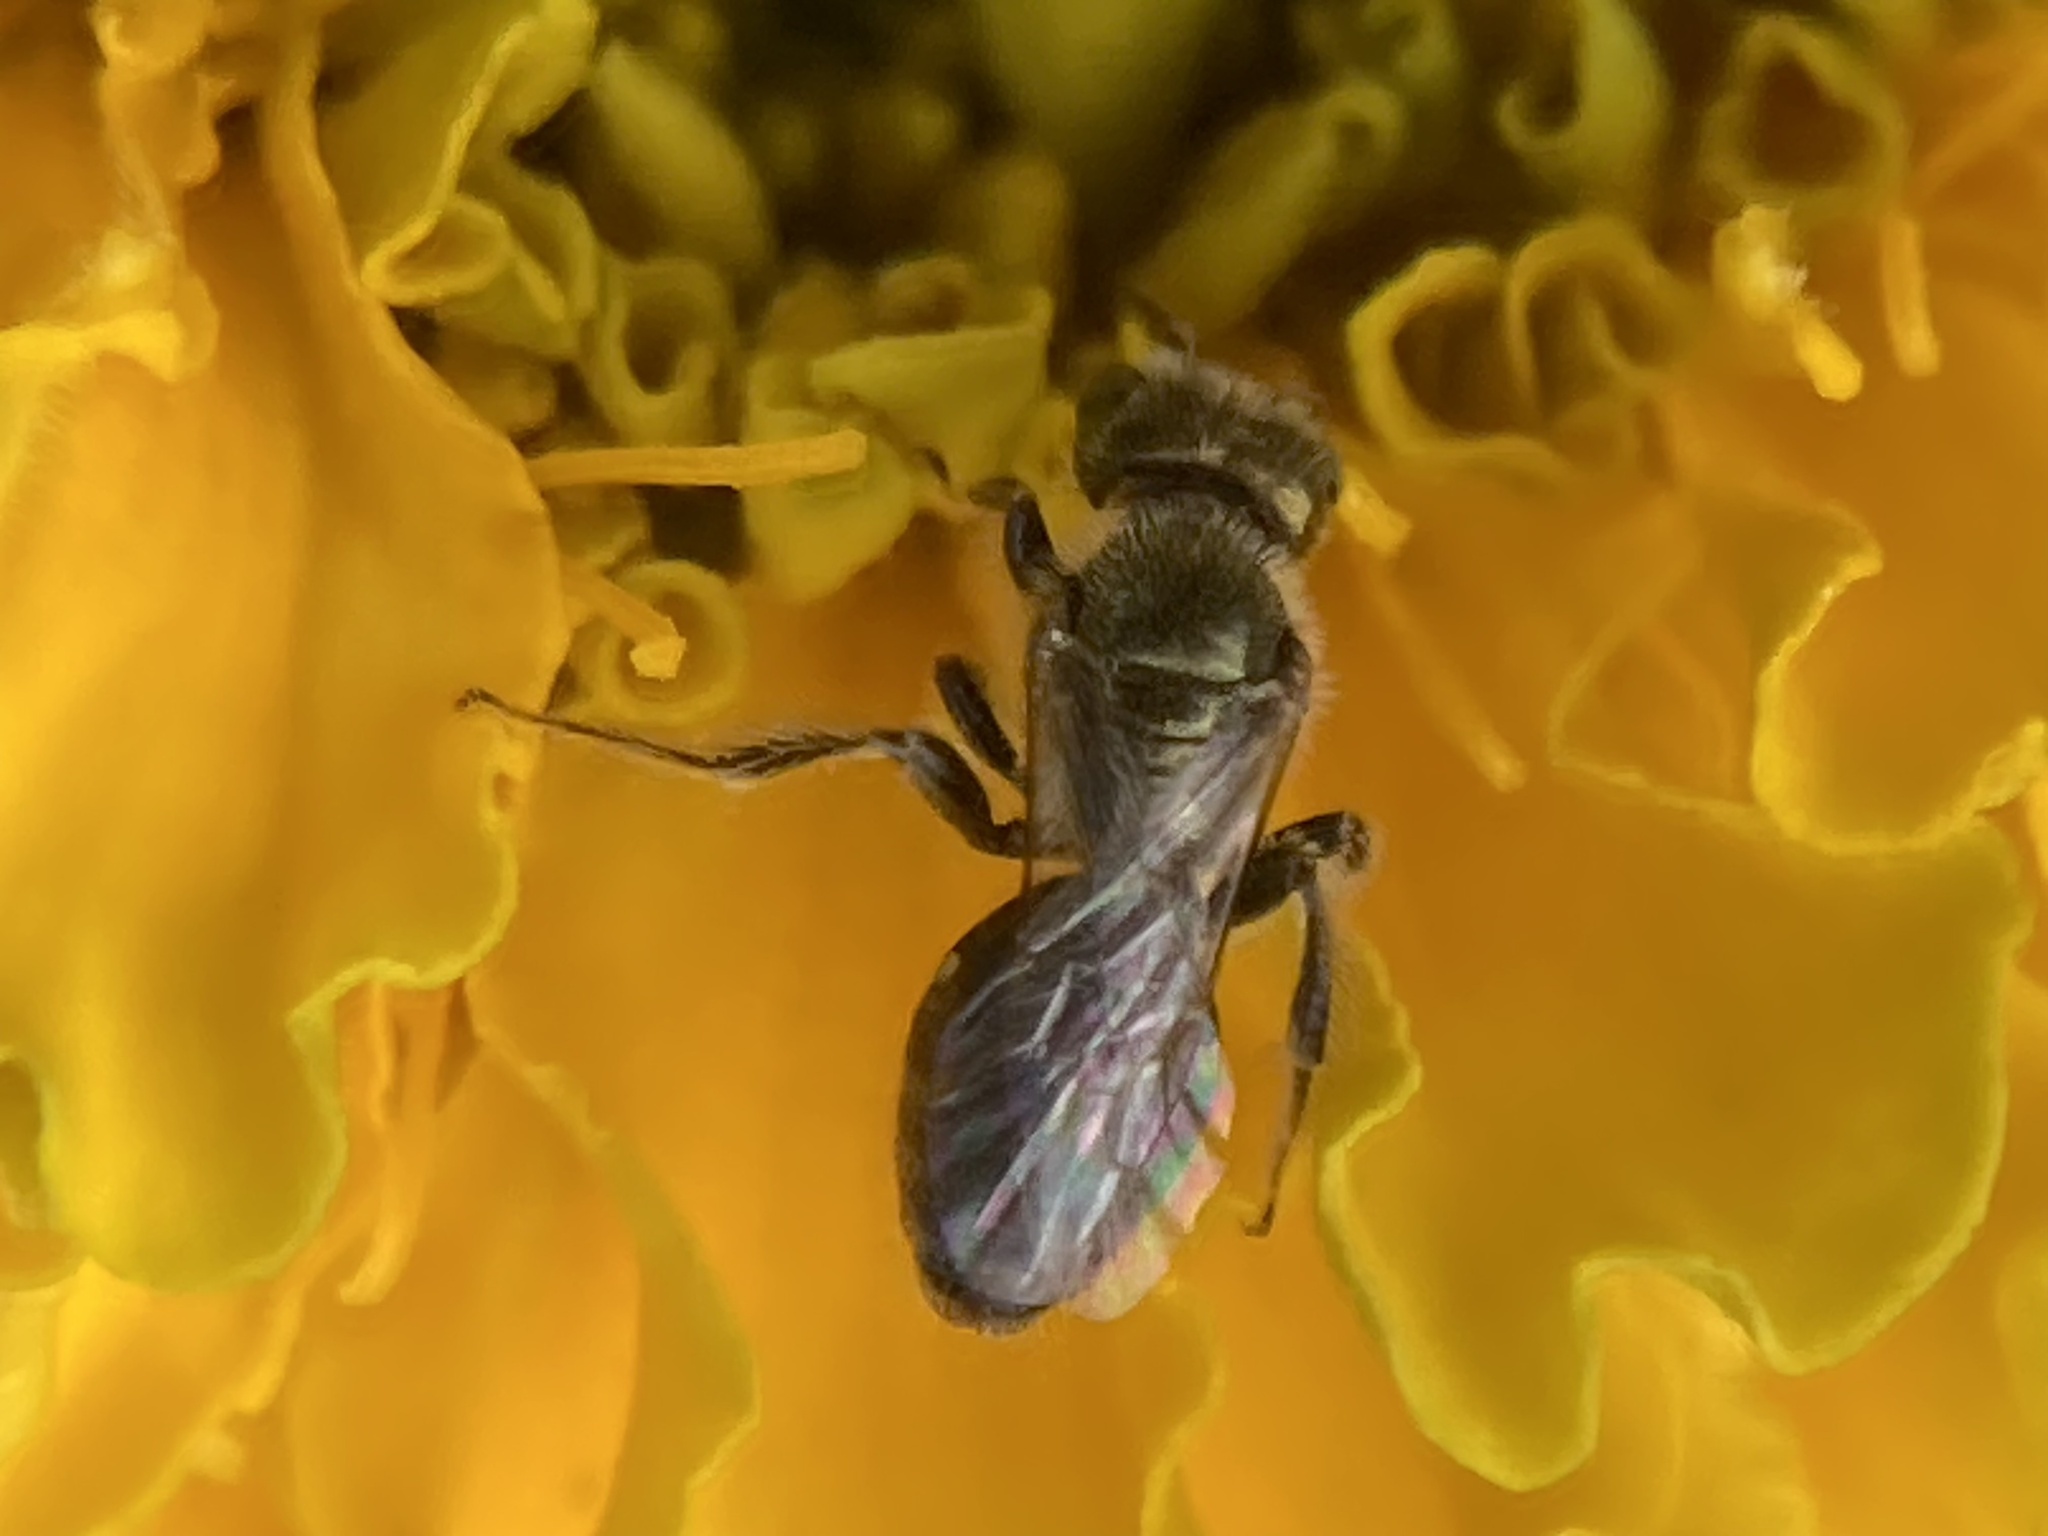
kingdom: Animalia
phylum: Arthropoda
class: Insecta
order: Hymenoptera
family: Halictidae
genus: Dialictus
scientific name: Dialictus
